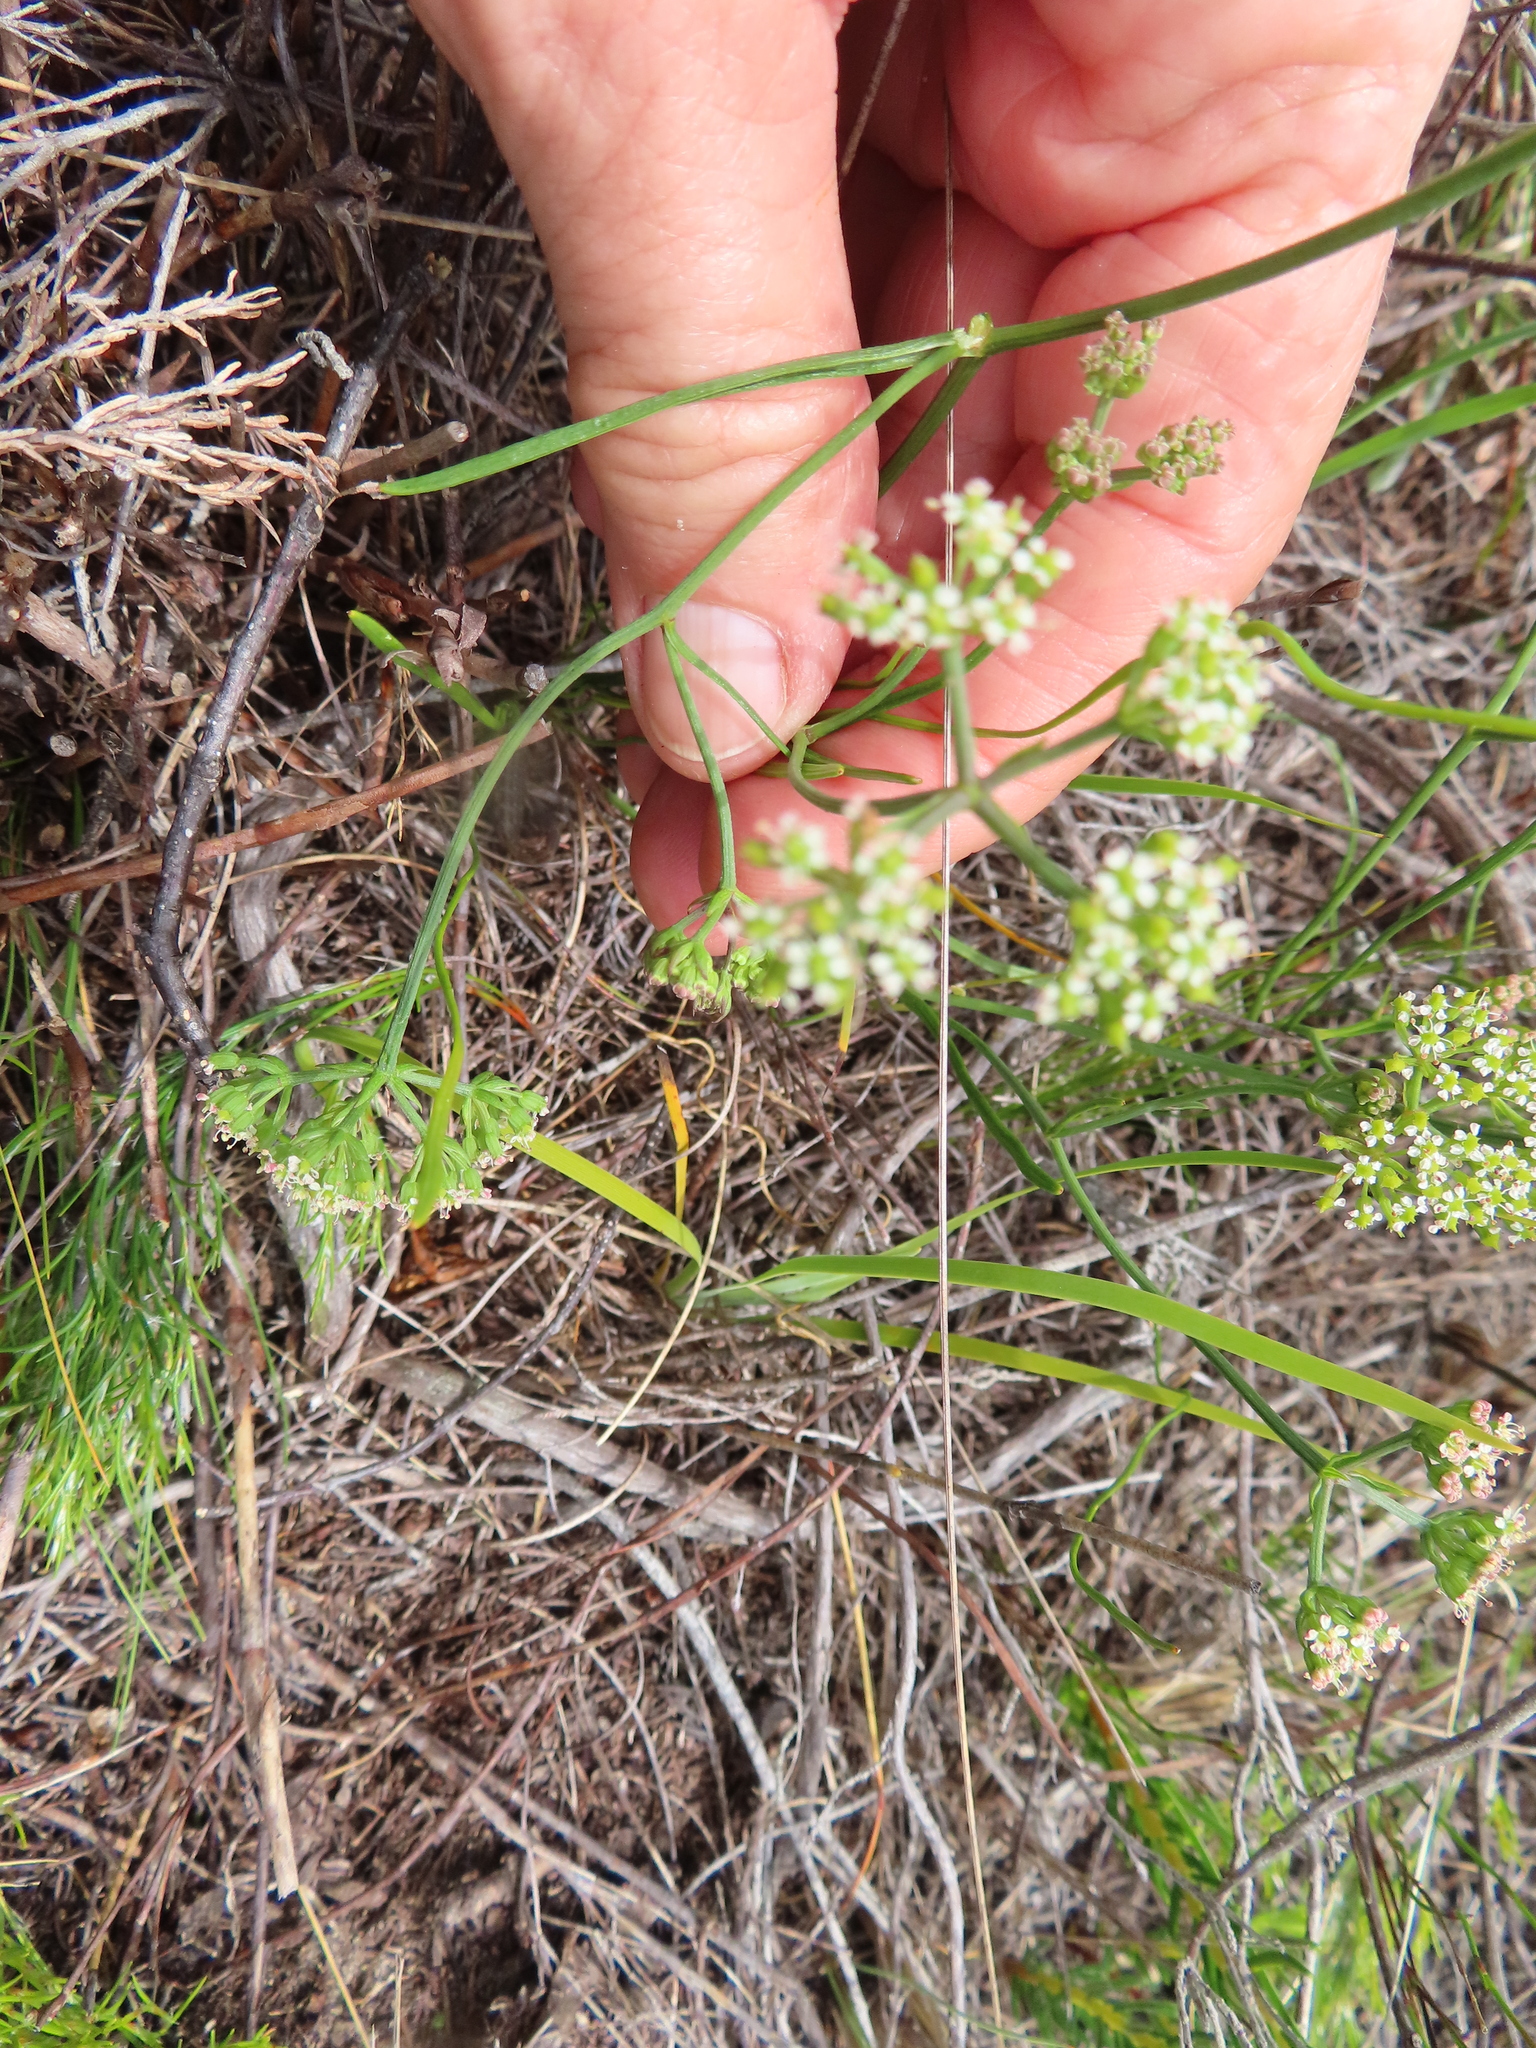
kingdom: Plantae
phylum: Tracheophyta
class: Magnoliopsida
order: Apiales
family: Apiaceae
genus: Itasina
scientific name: Itasina filifolia
